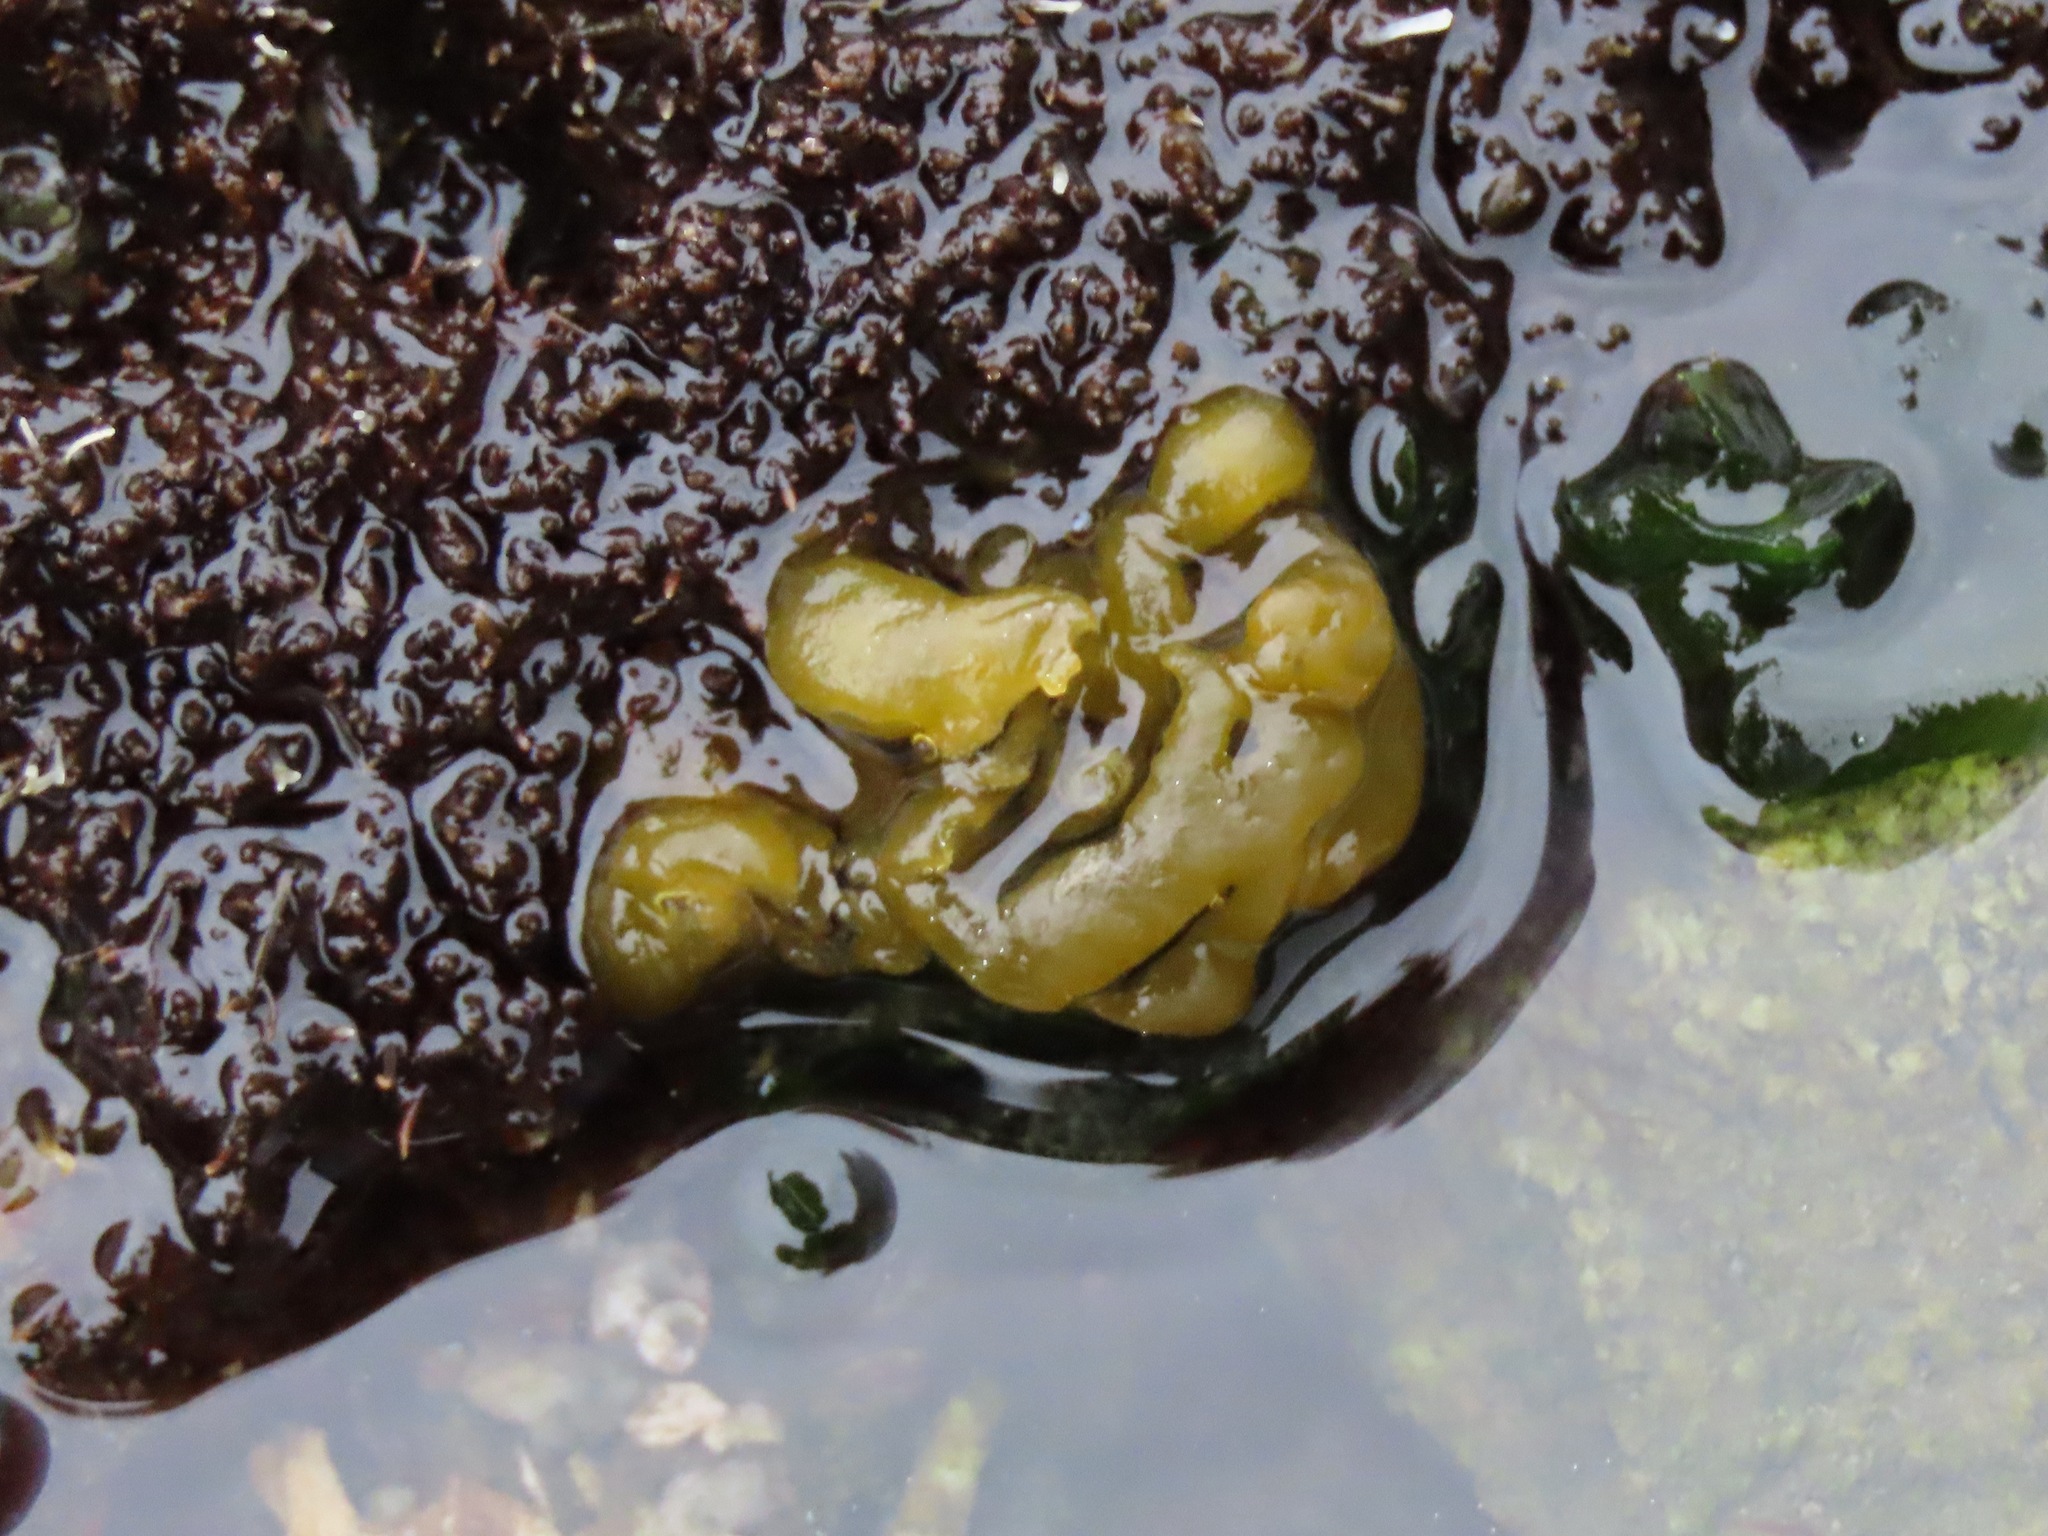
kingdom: Chromista
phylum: Ochrophyta
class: Phaeophyceae
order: Ectocarpales
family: Chordariaceae
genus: Leathesia
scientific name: Leathesia marina
